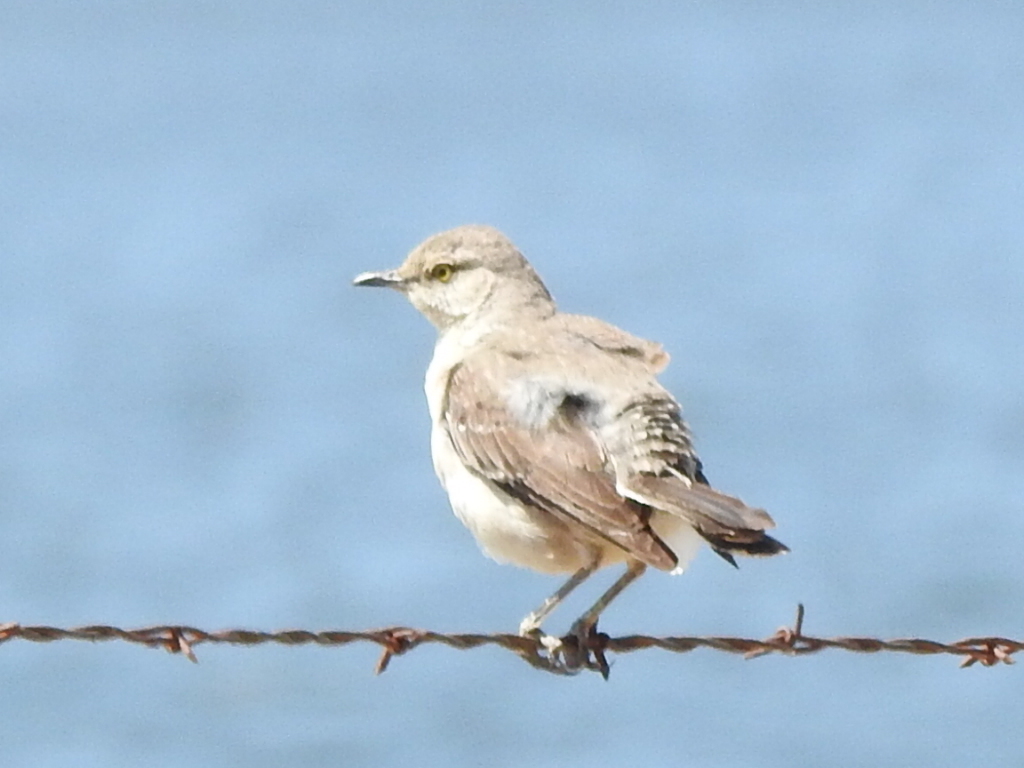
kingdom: Animalia
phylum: Chordata
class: Aves
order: Passeriformes
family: Mimidae
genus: Mimus
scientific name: Mimus polyglottos
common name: Northern mockingbird
